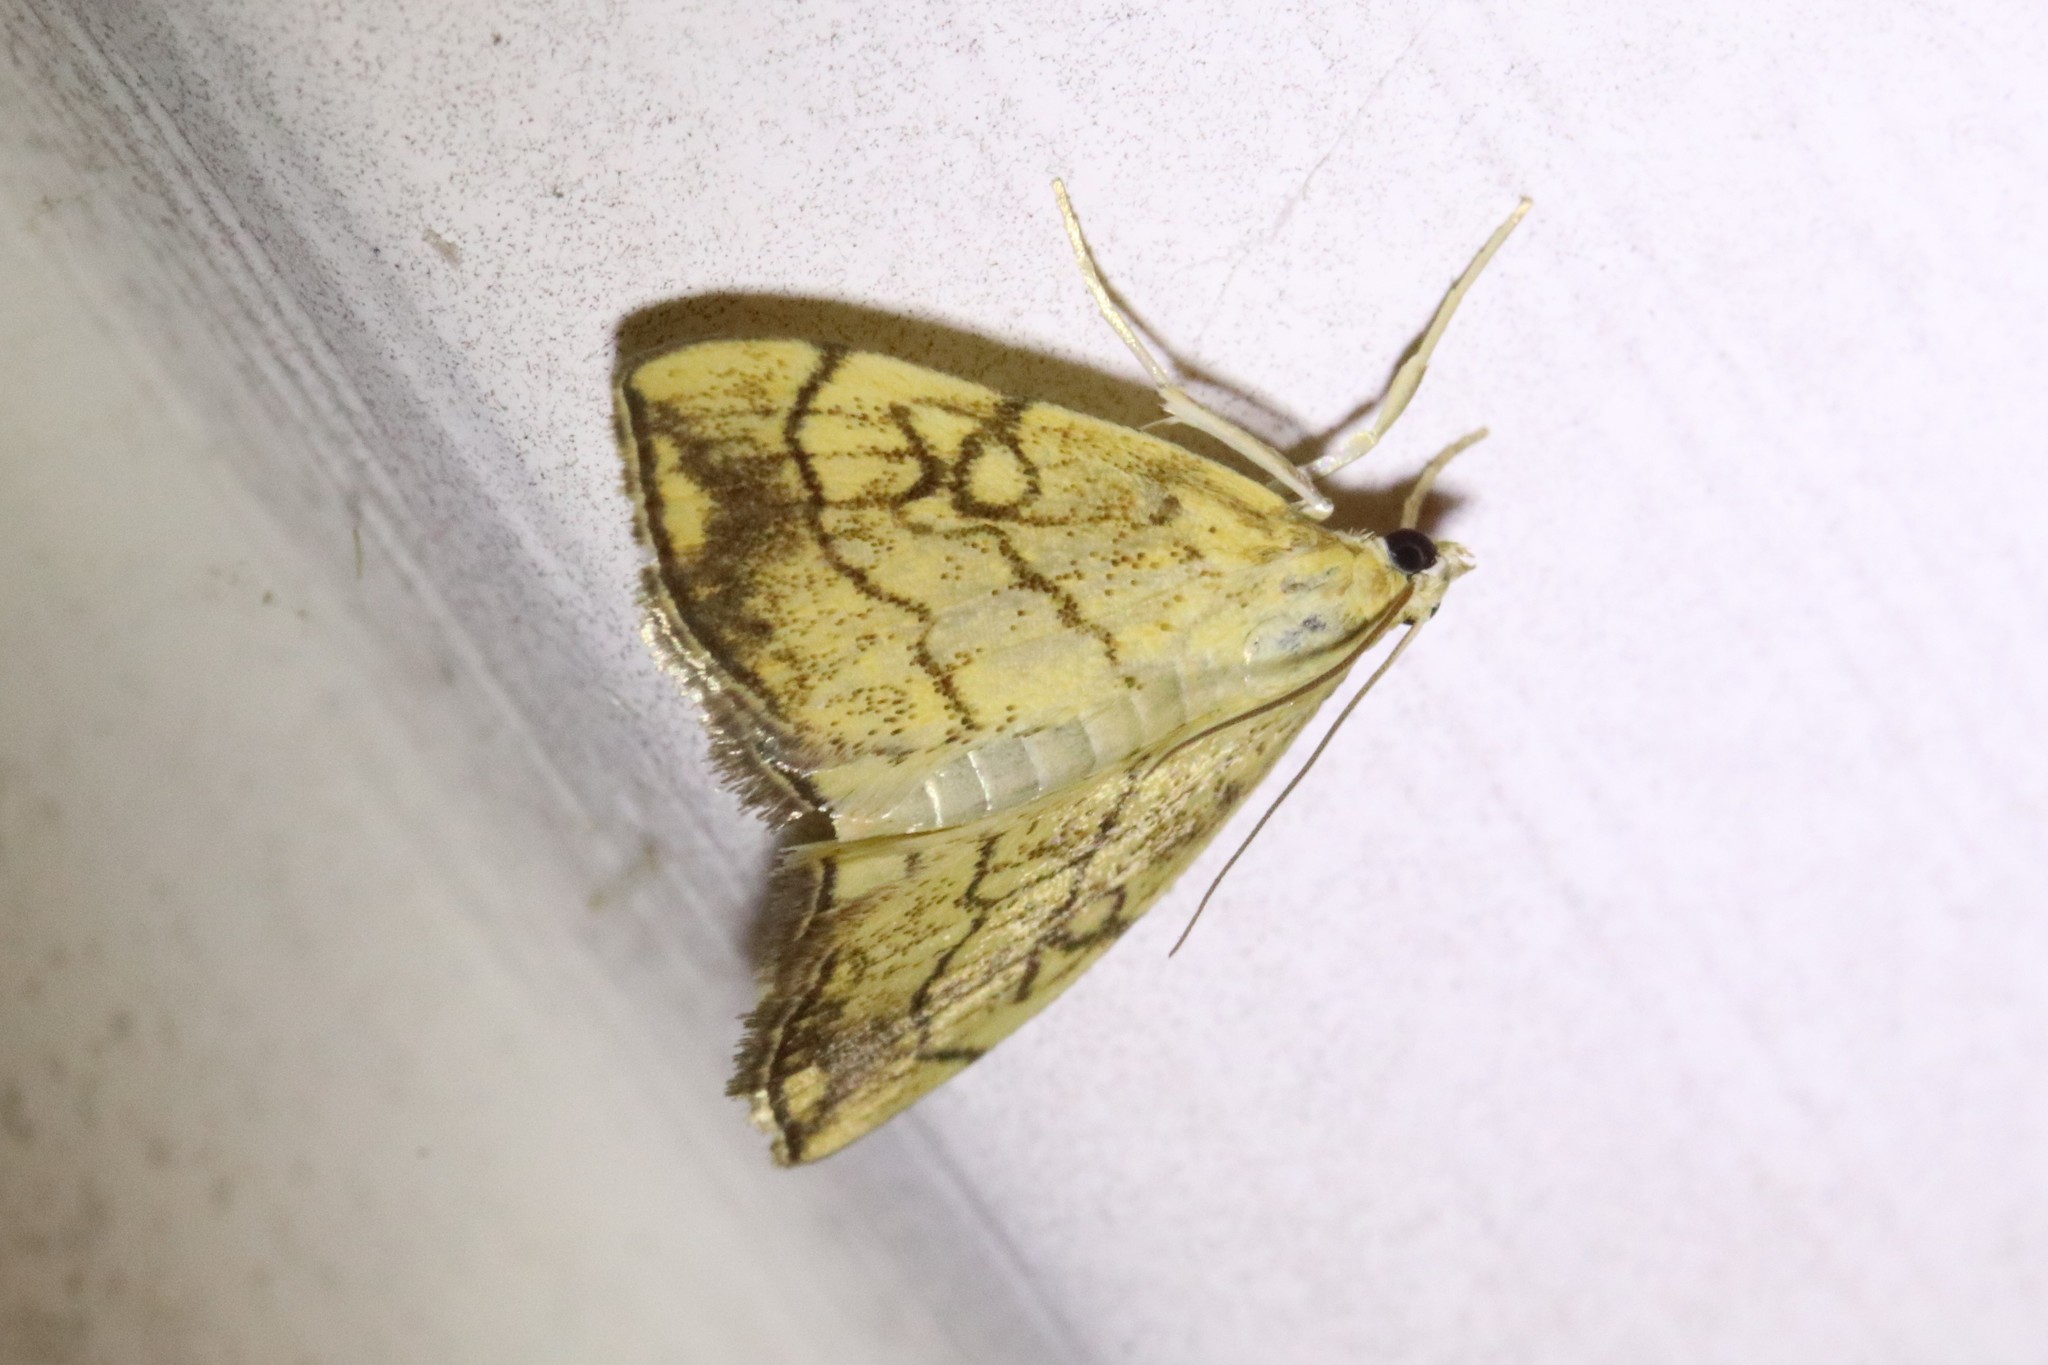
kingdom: Animalia
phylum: Arthropoda
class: Insecta
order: Lepidoptera
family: Crambidae
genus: Evergestis
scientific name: Evergestis pallidata
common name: Chequered pearl
